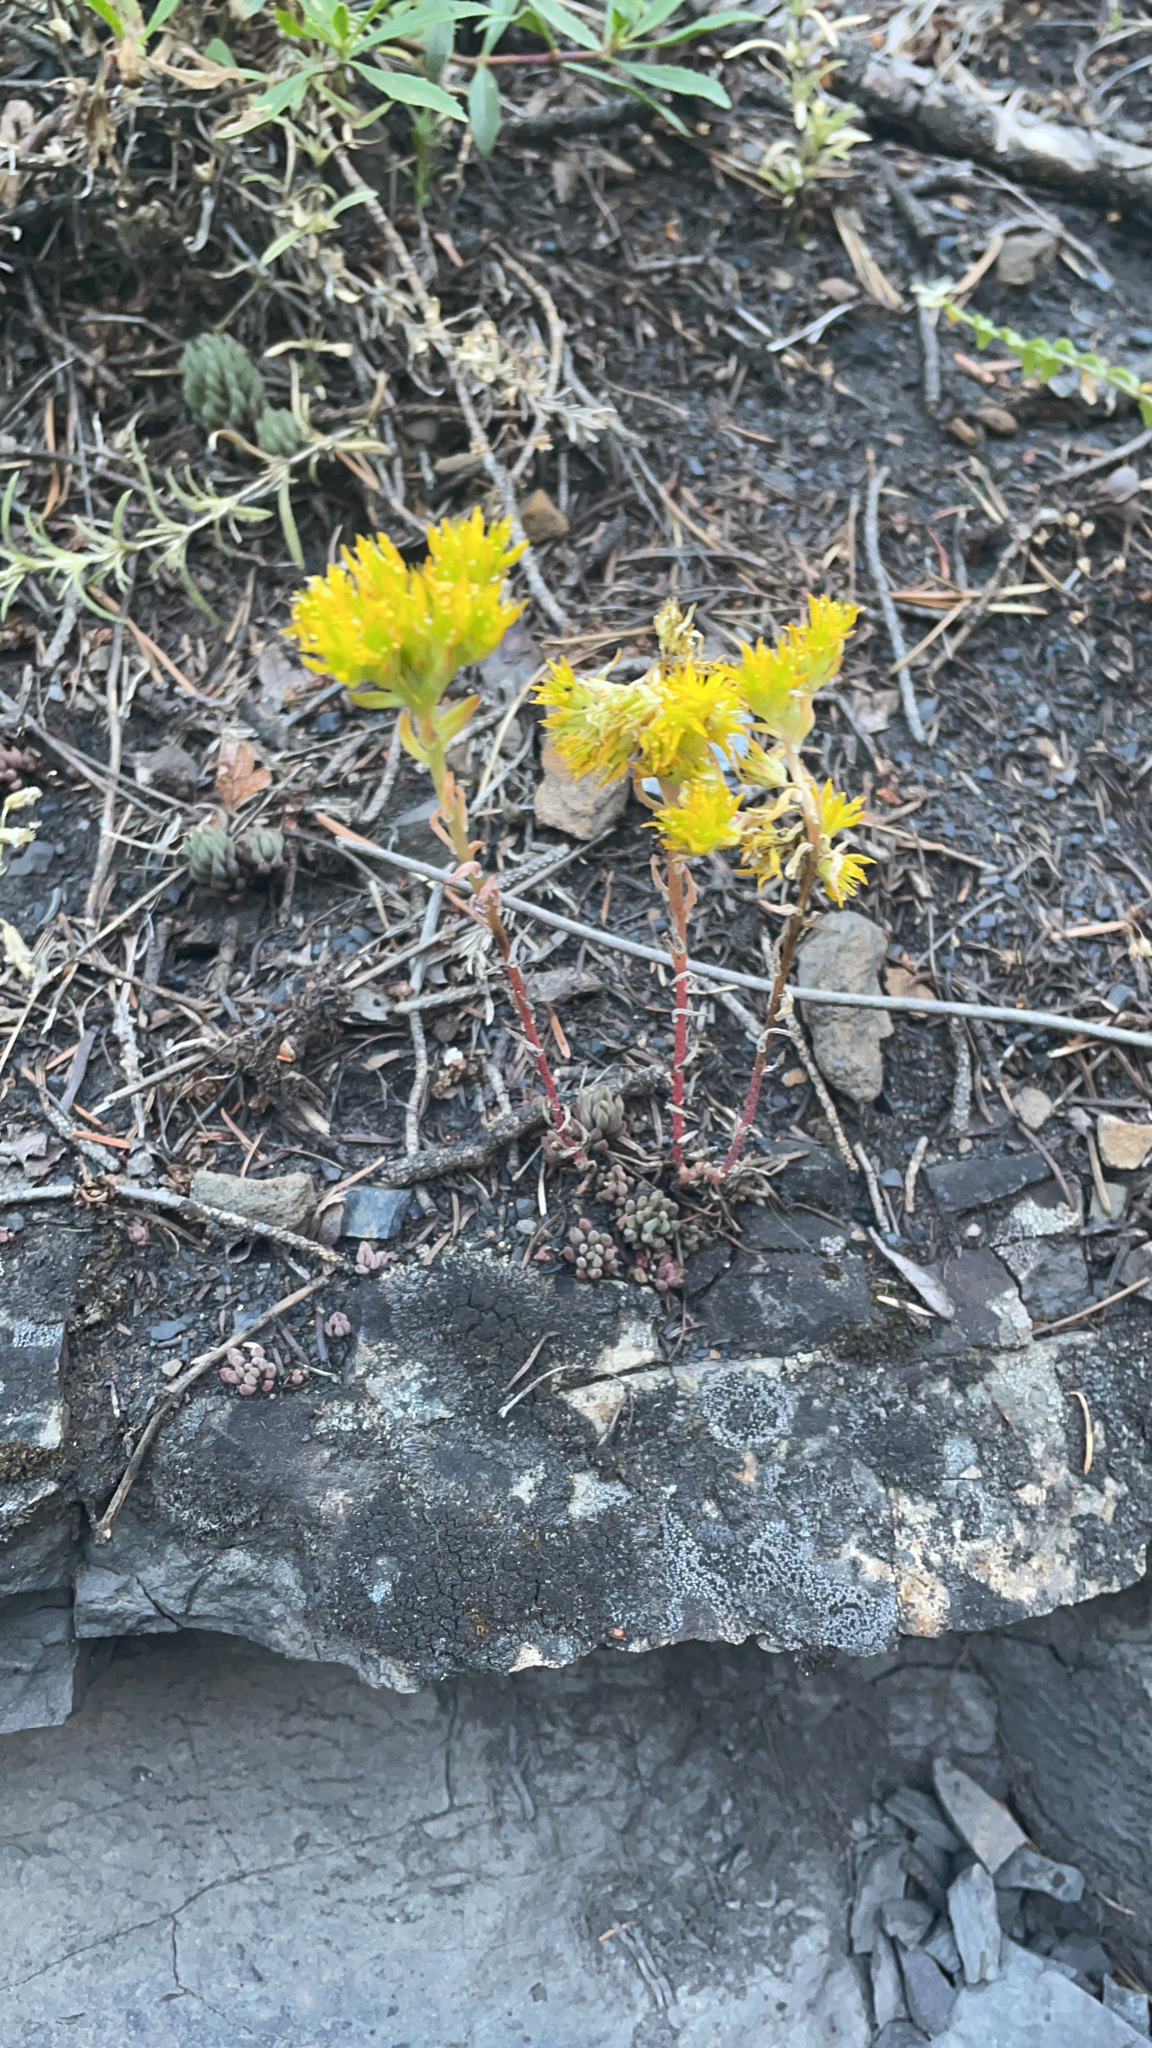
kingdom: Plantae
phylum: Tracheophyta
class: Magnoliopsida
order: Saxifragales
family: Crassulaceae
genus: Sedum
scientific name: Sedum lanceolatum
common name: Common stonecrop
